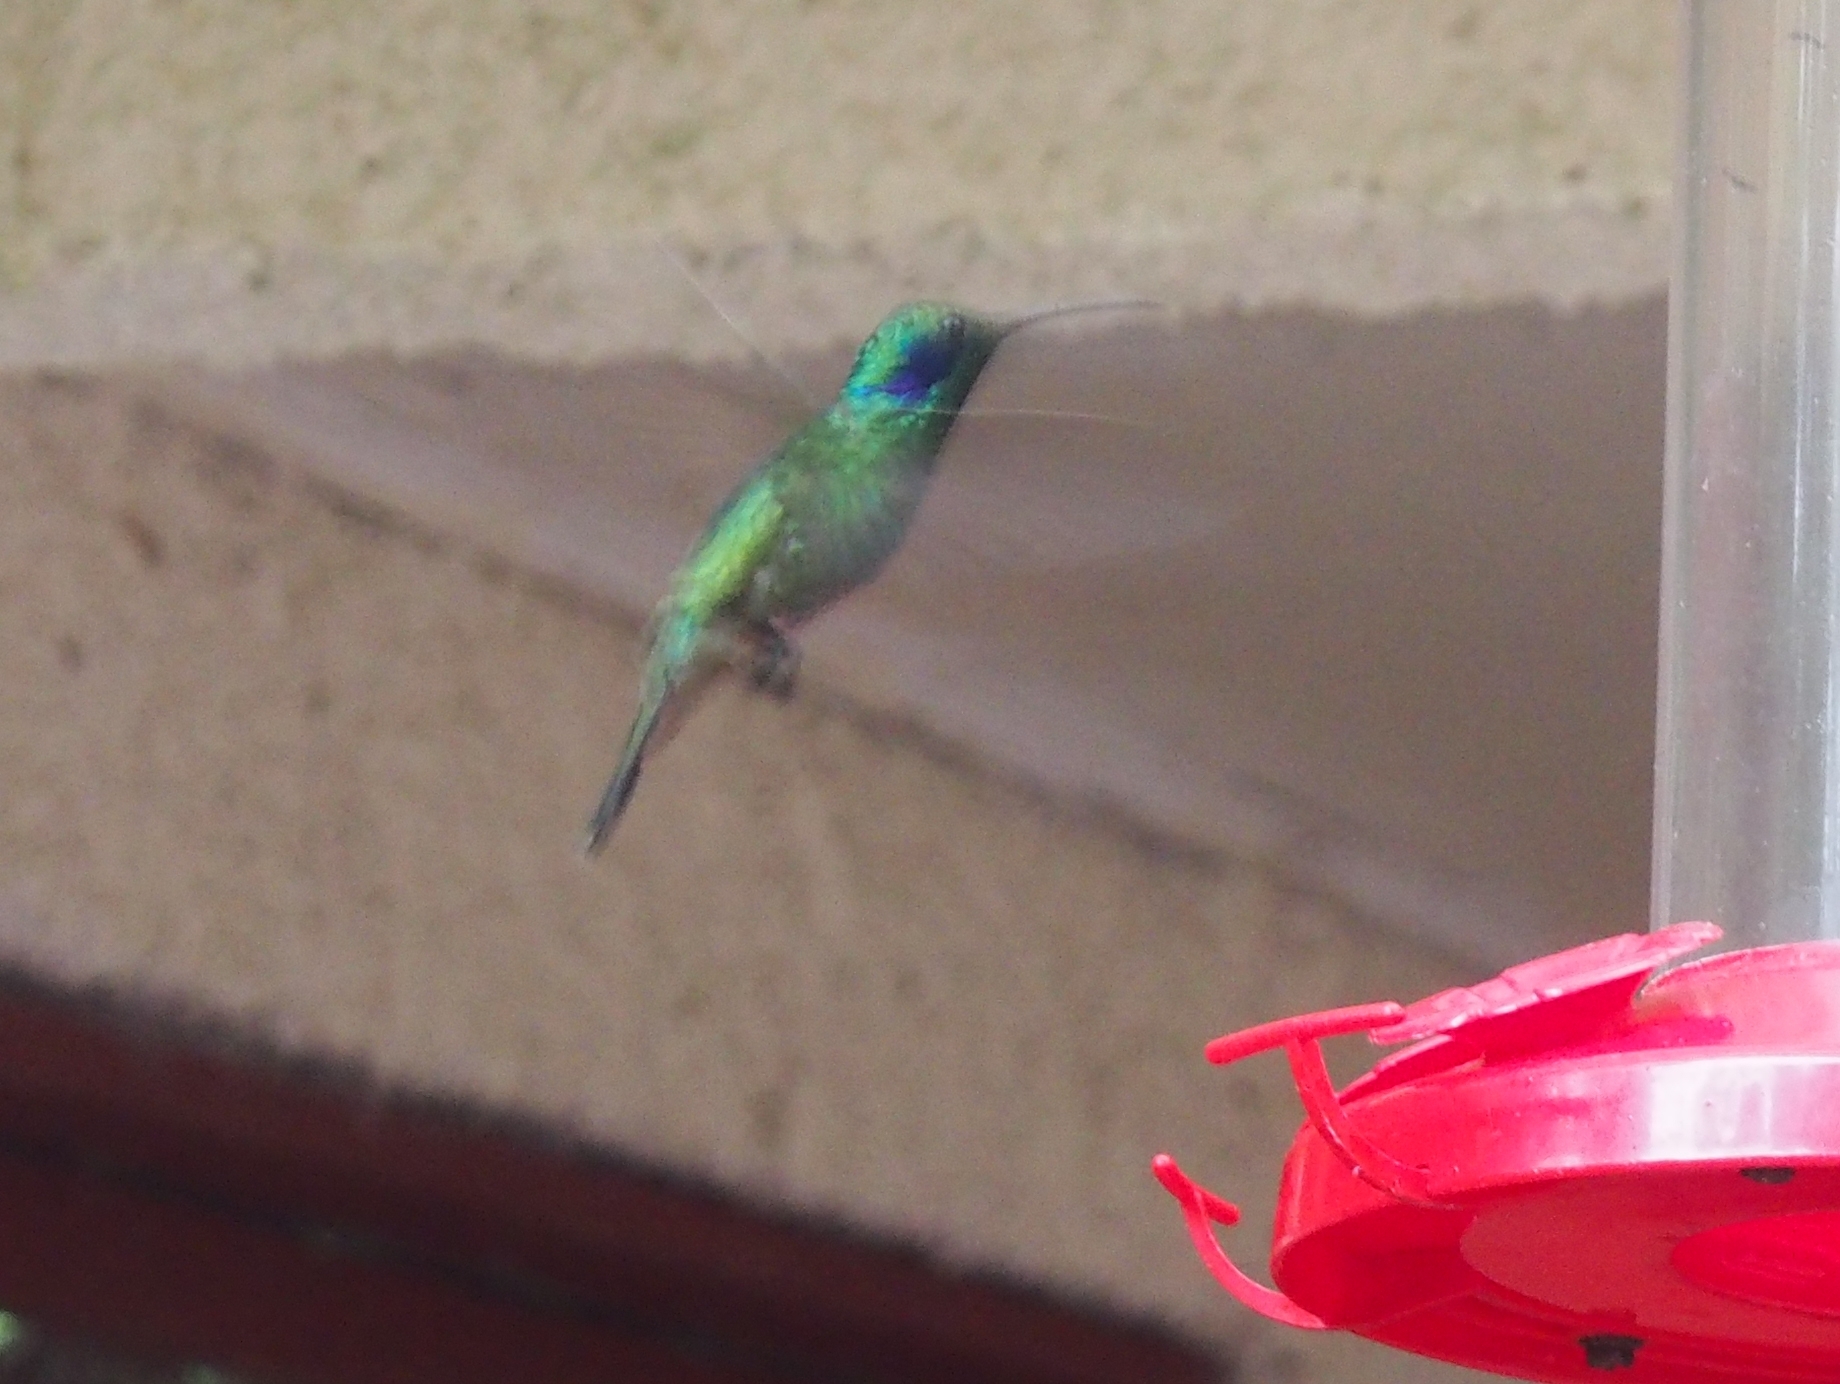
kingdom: Animalia
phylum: Chordata
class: Aves
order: Apodiformes
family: Trochilidae
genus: Colibri
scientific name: Colibri cyanotus
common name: Lesser violetear
